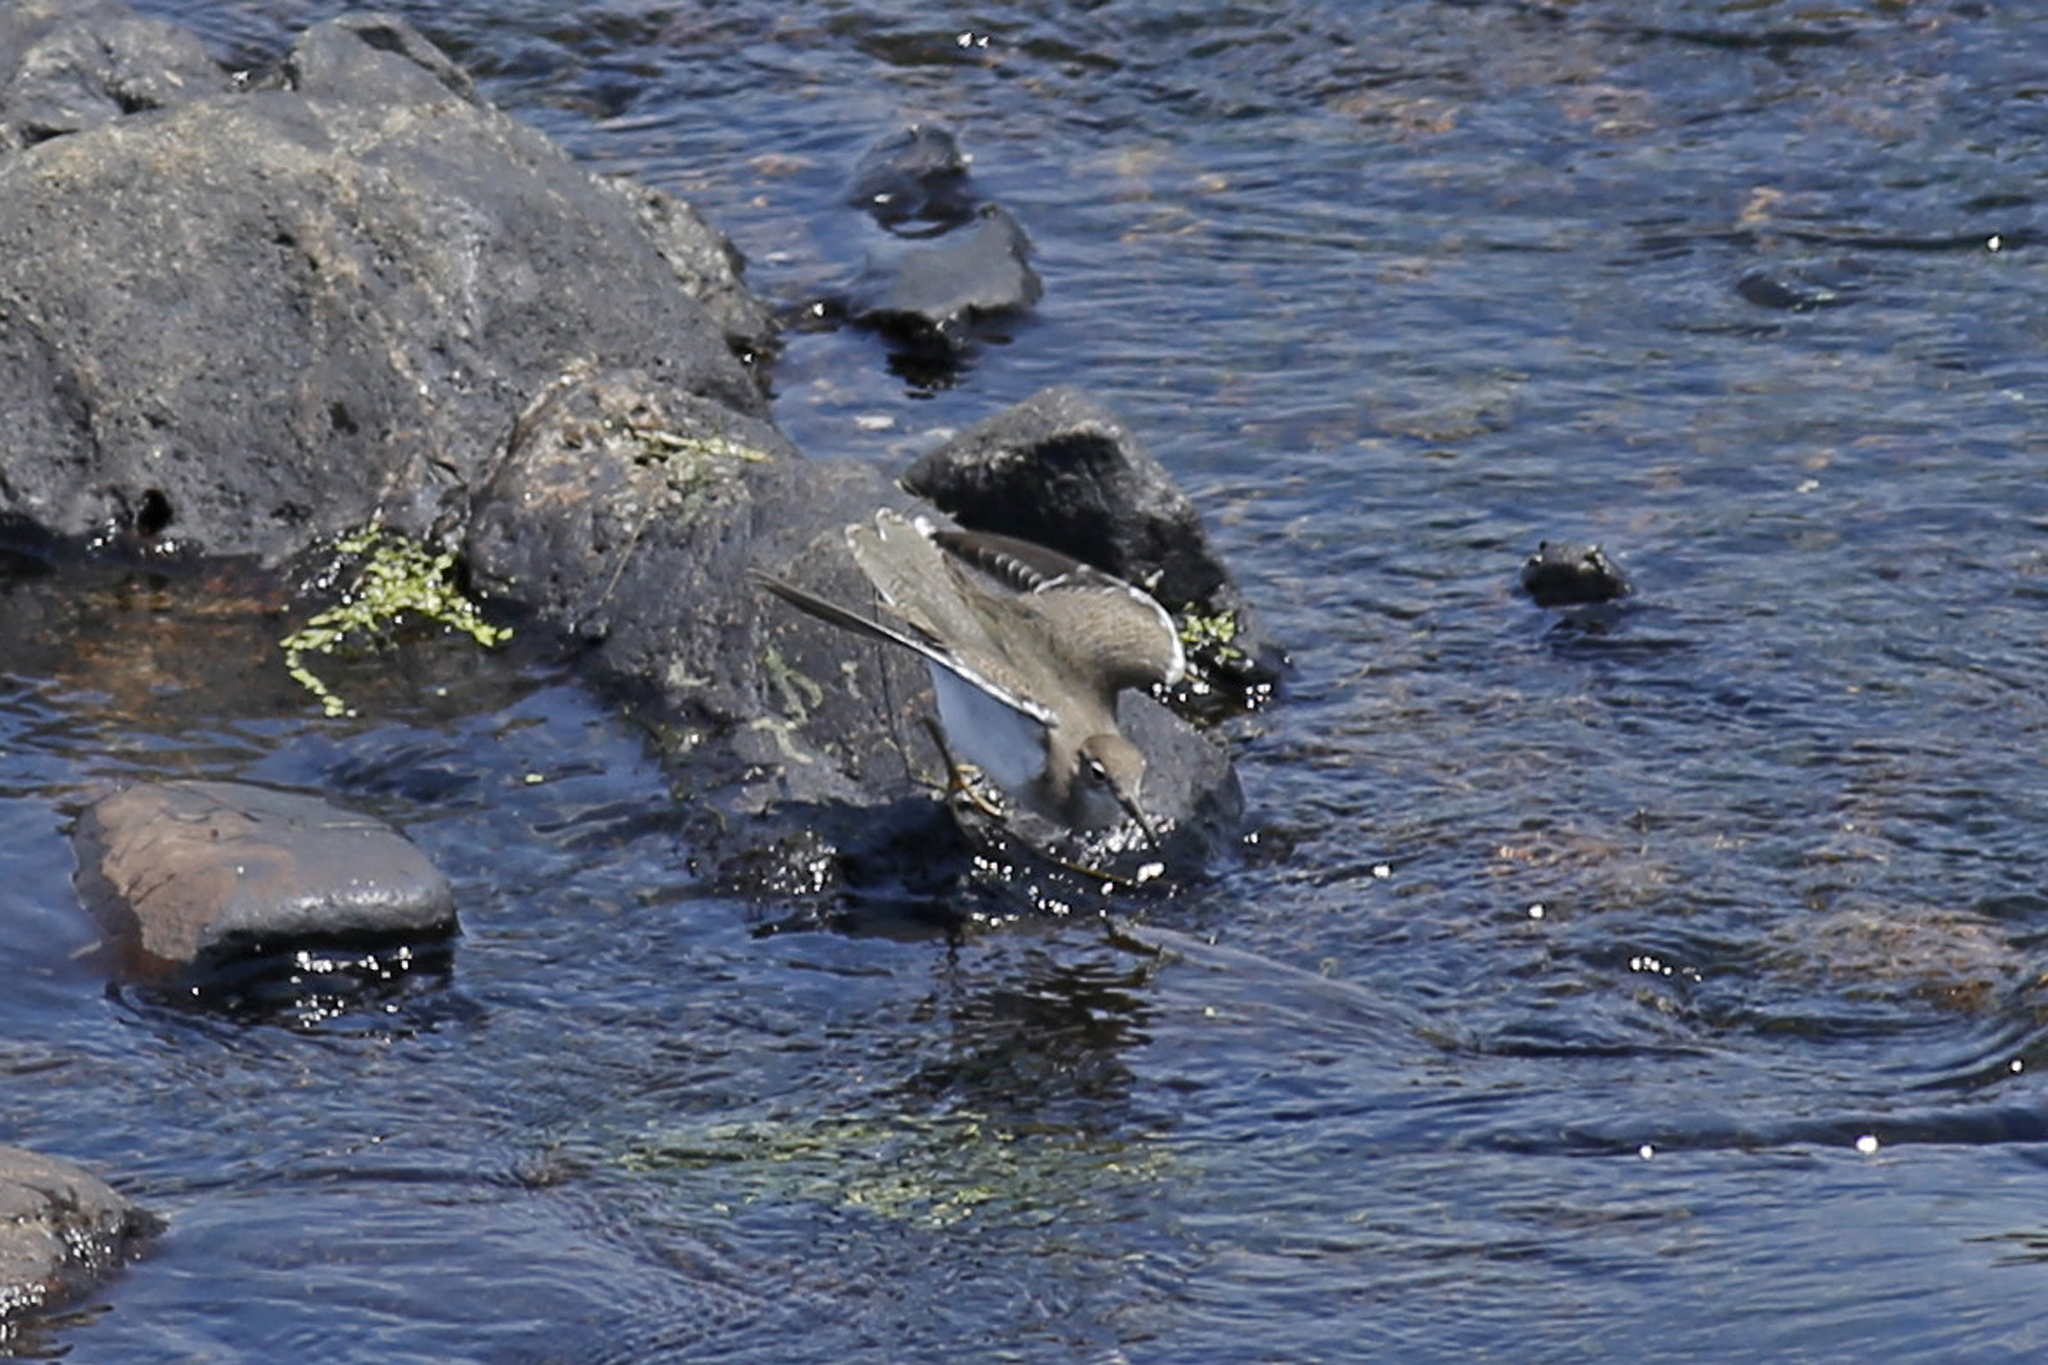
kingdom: Animalia
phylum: Chordata
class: Aves
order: Charadriiformes
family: Scolopacidae
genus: Actitis
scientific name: Actitis macularius
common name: Spotted sandpiper
